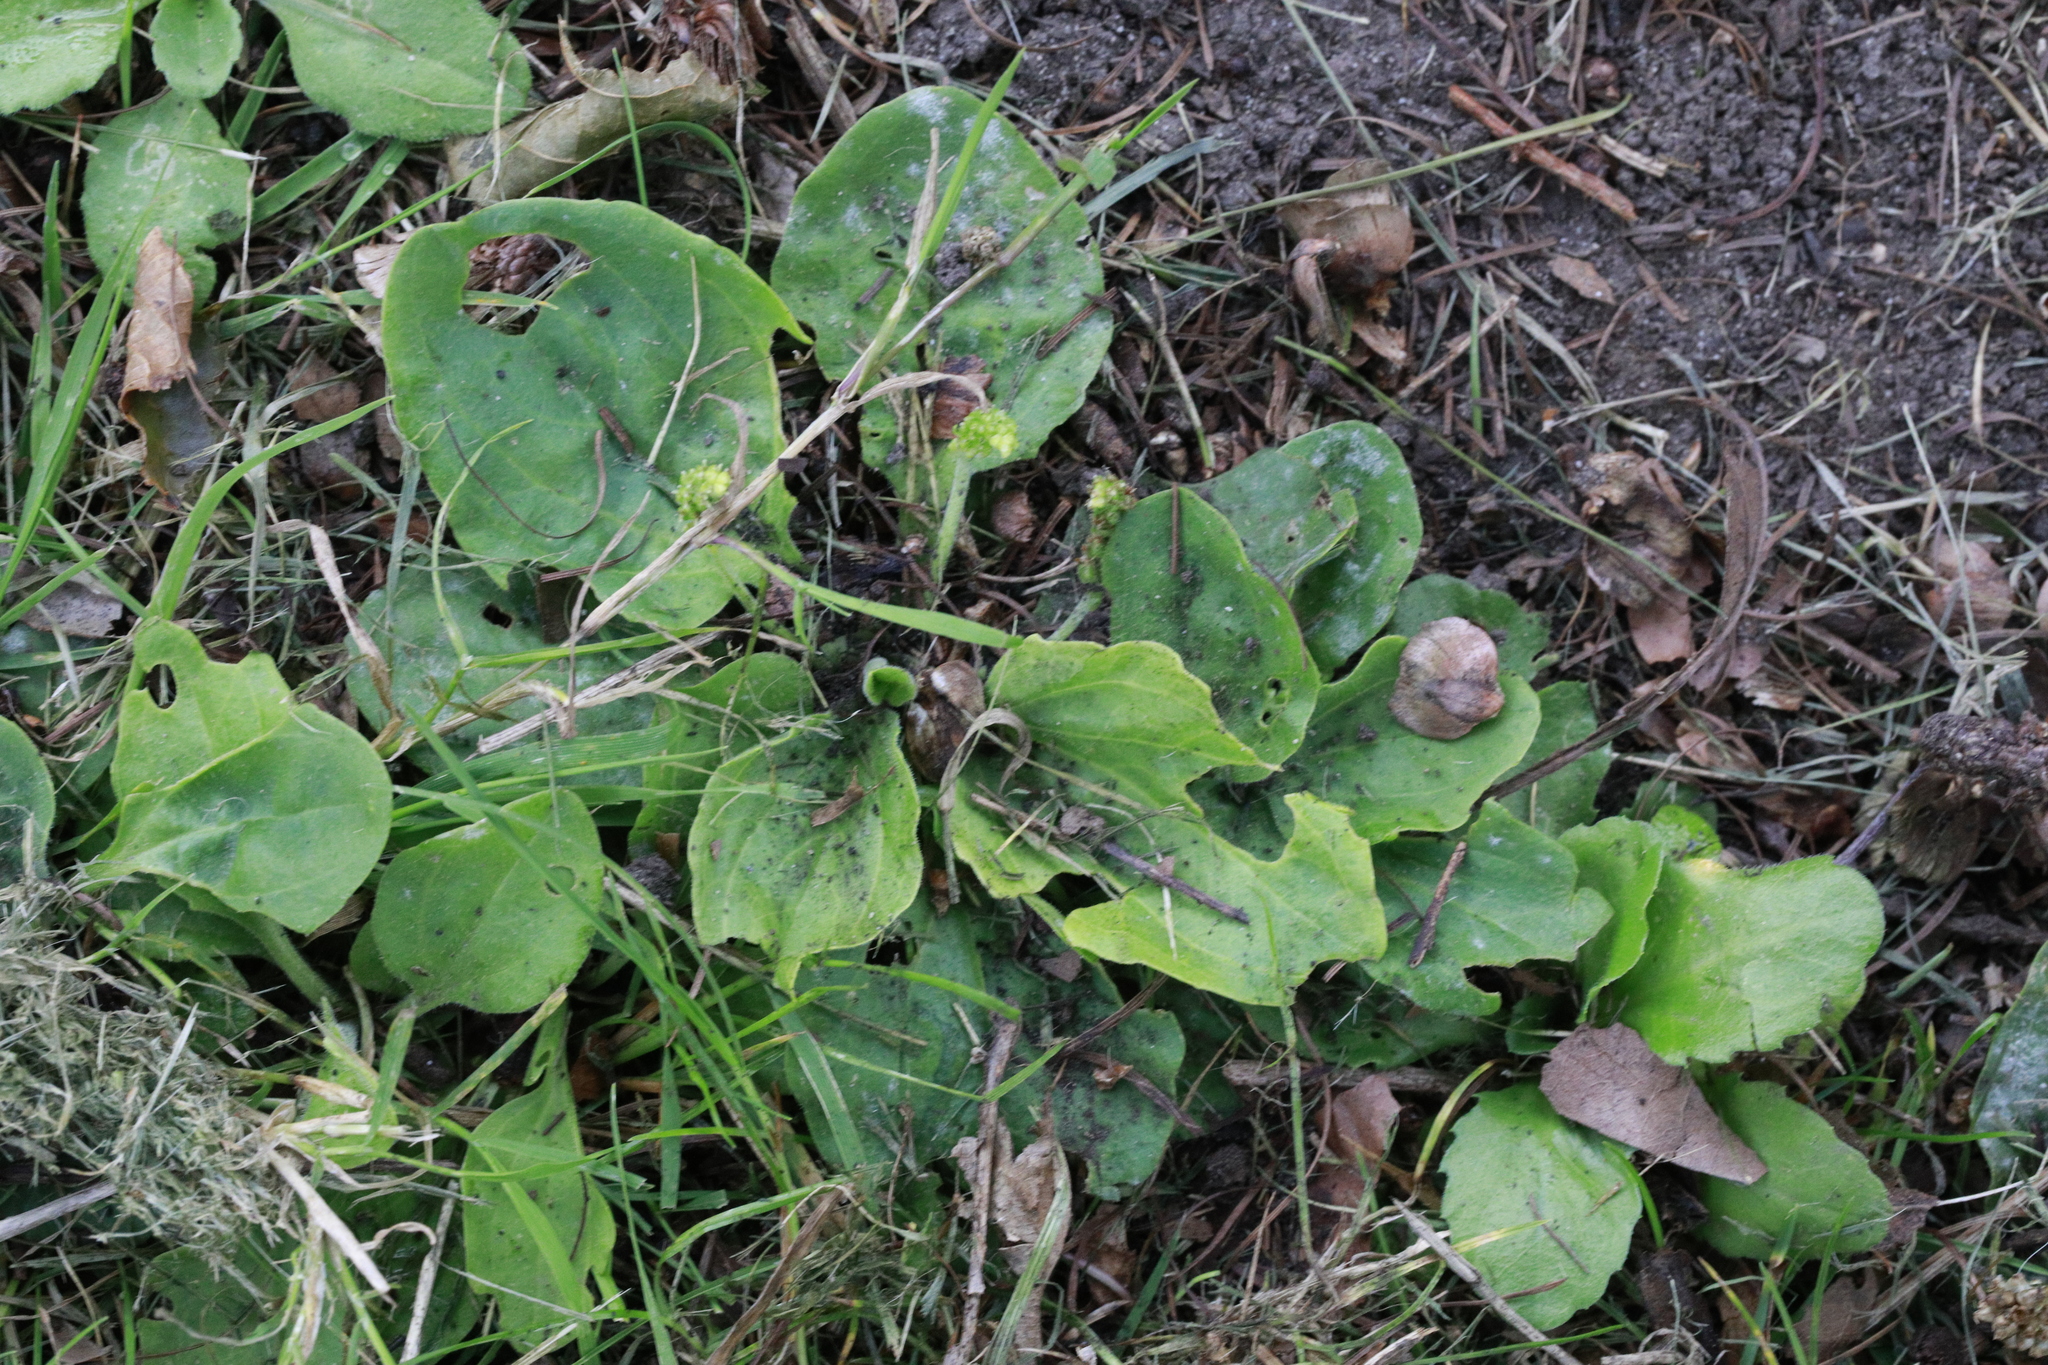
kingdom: Plantae
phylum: Tracheophyta
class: Magnoliopsida
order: Lamiales
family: Plantaginaceae
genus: Plantago
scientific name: Plantago major
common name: Common plantain
